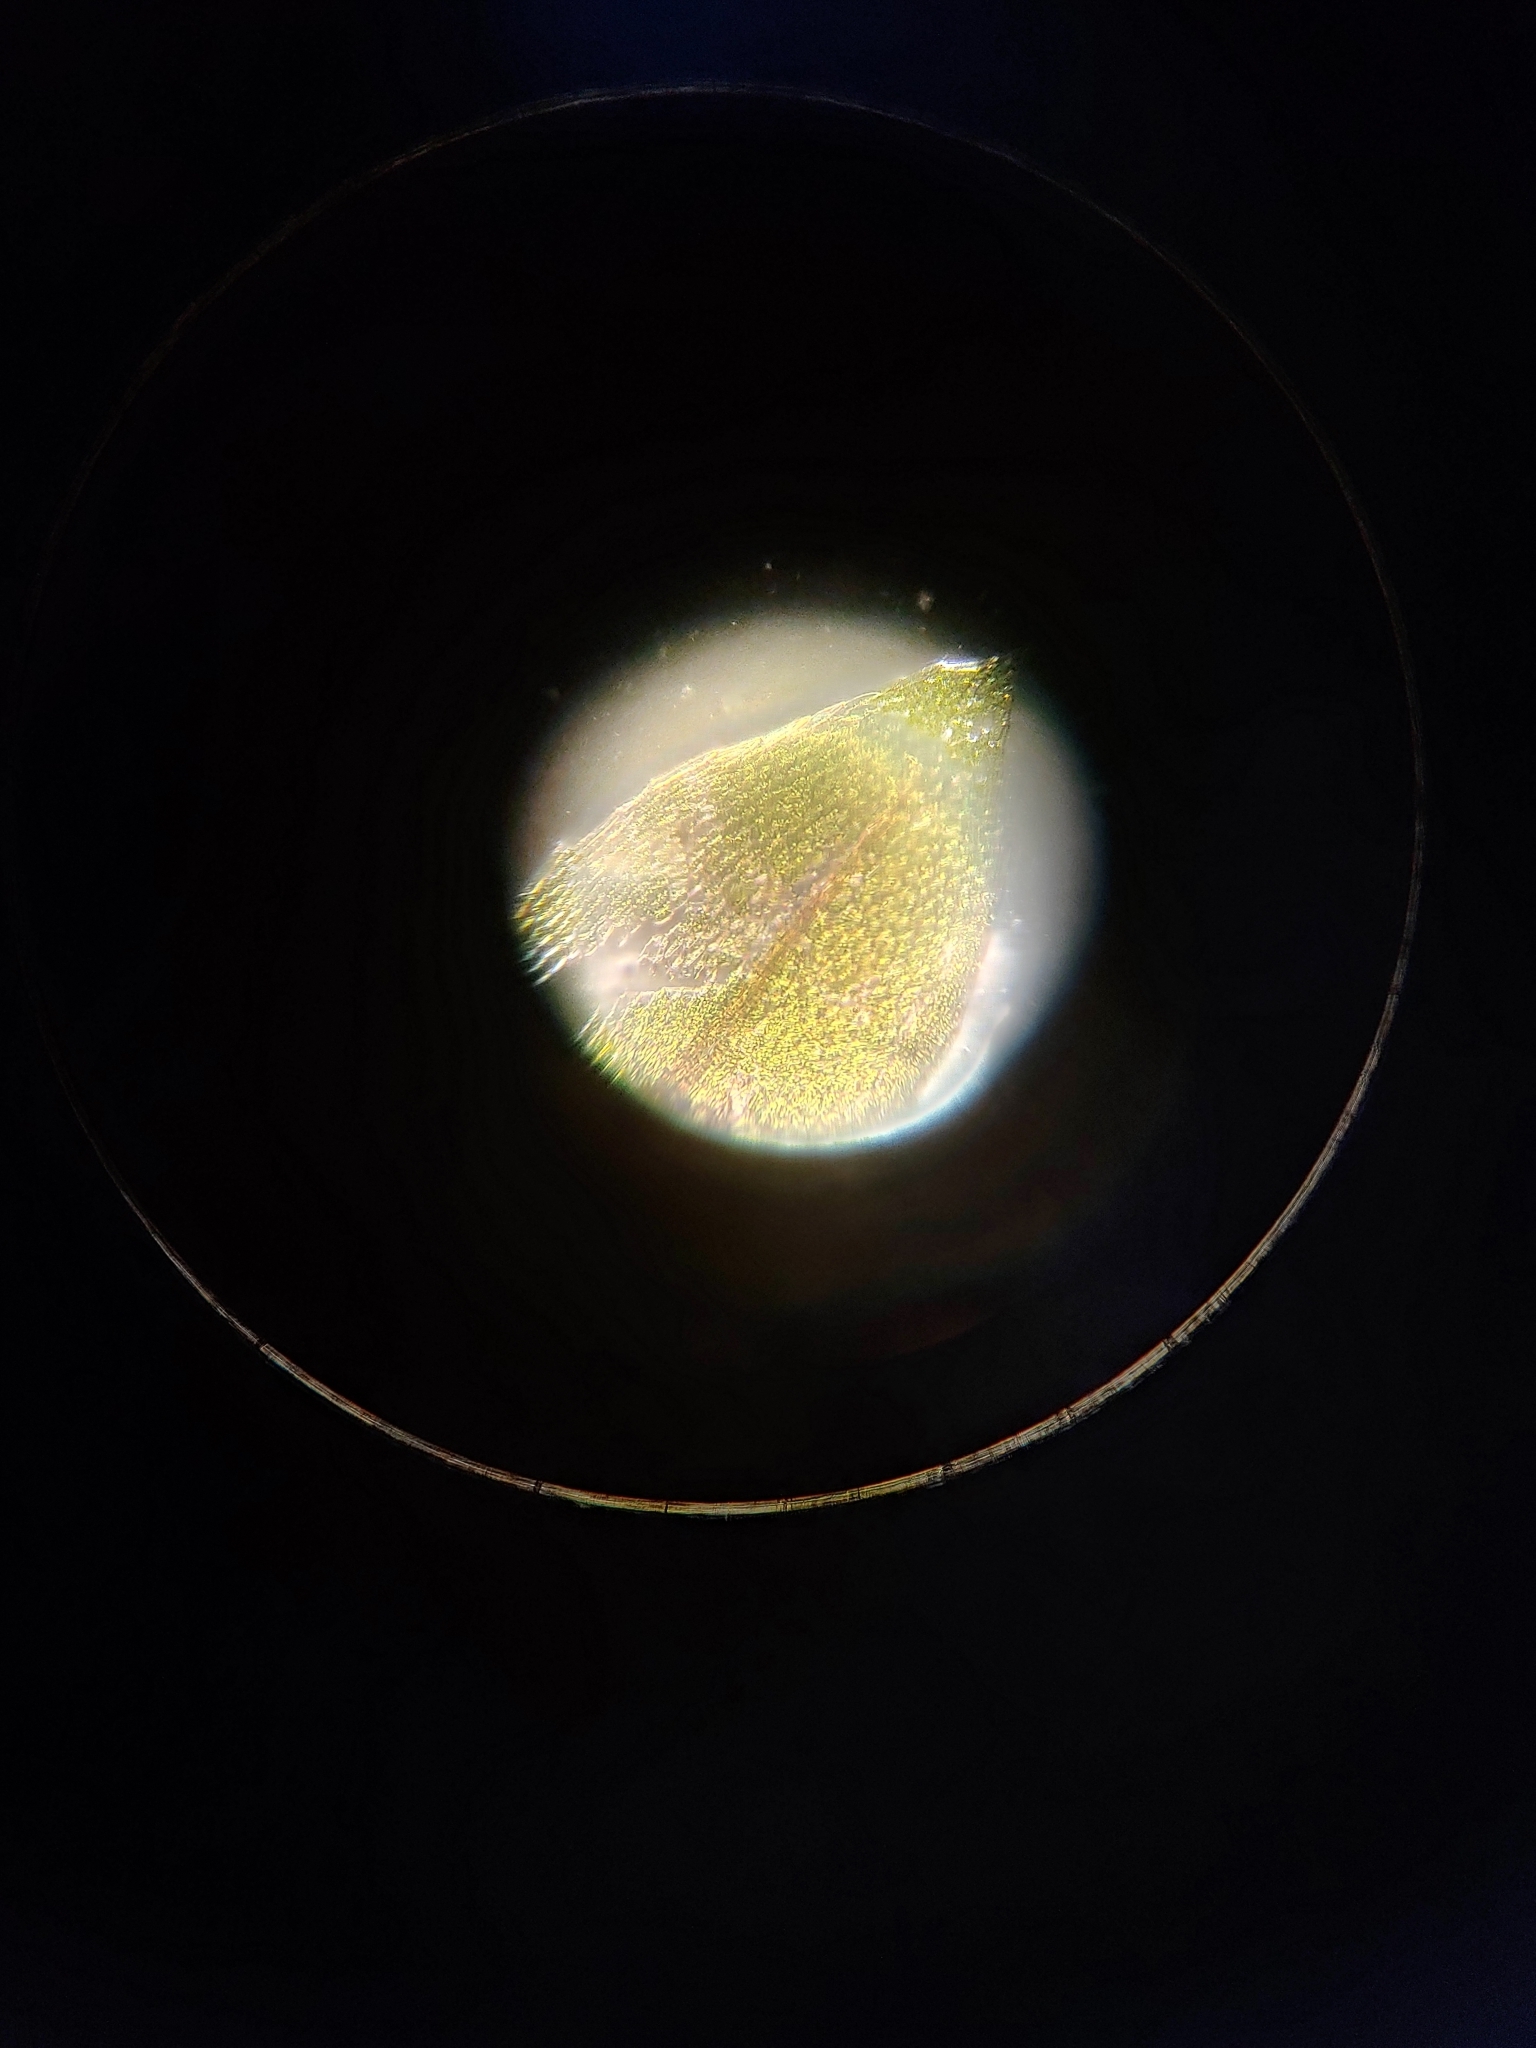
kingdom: Plantae
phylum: Bryophyta
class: Bryopsida
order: Bryales
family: Bryaceae
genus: Rosulabryum
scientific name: Rosulabryum capillare
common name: Capillary thread-moss
